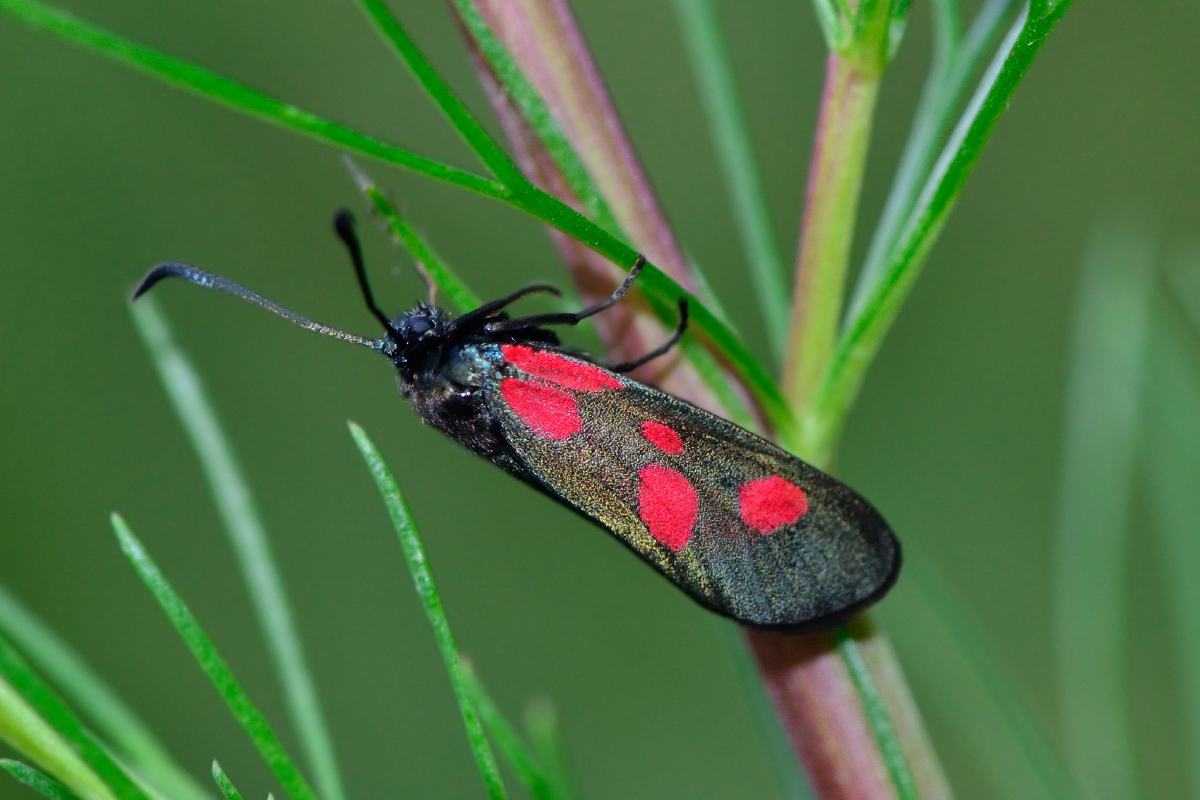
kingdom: Animalia
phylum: Arthropoda
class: Insecta
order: Lepidoptera
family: Zygaenidae
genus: Zygaena
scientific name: Zygaena viciae
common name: New forest burnet
